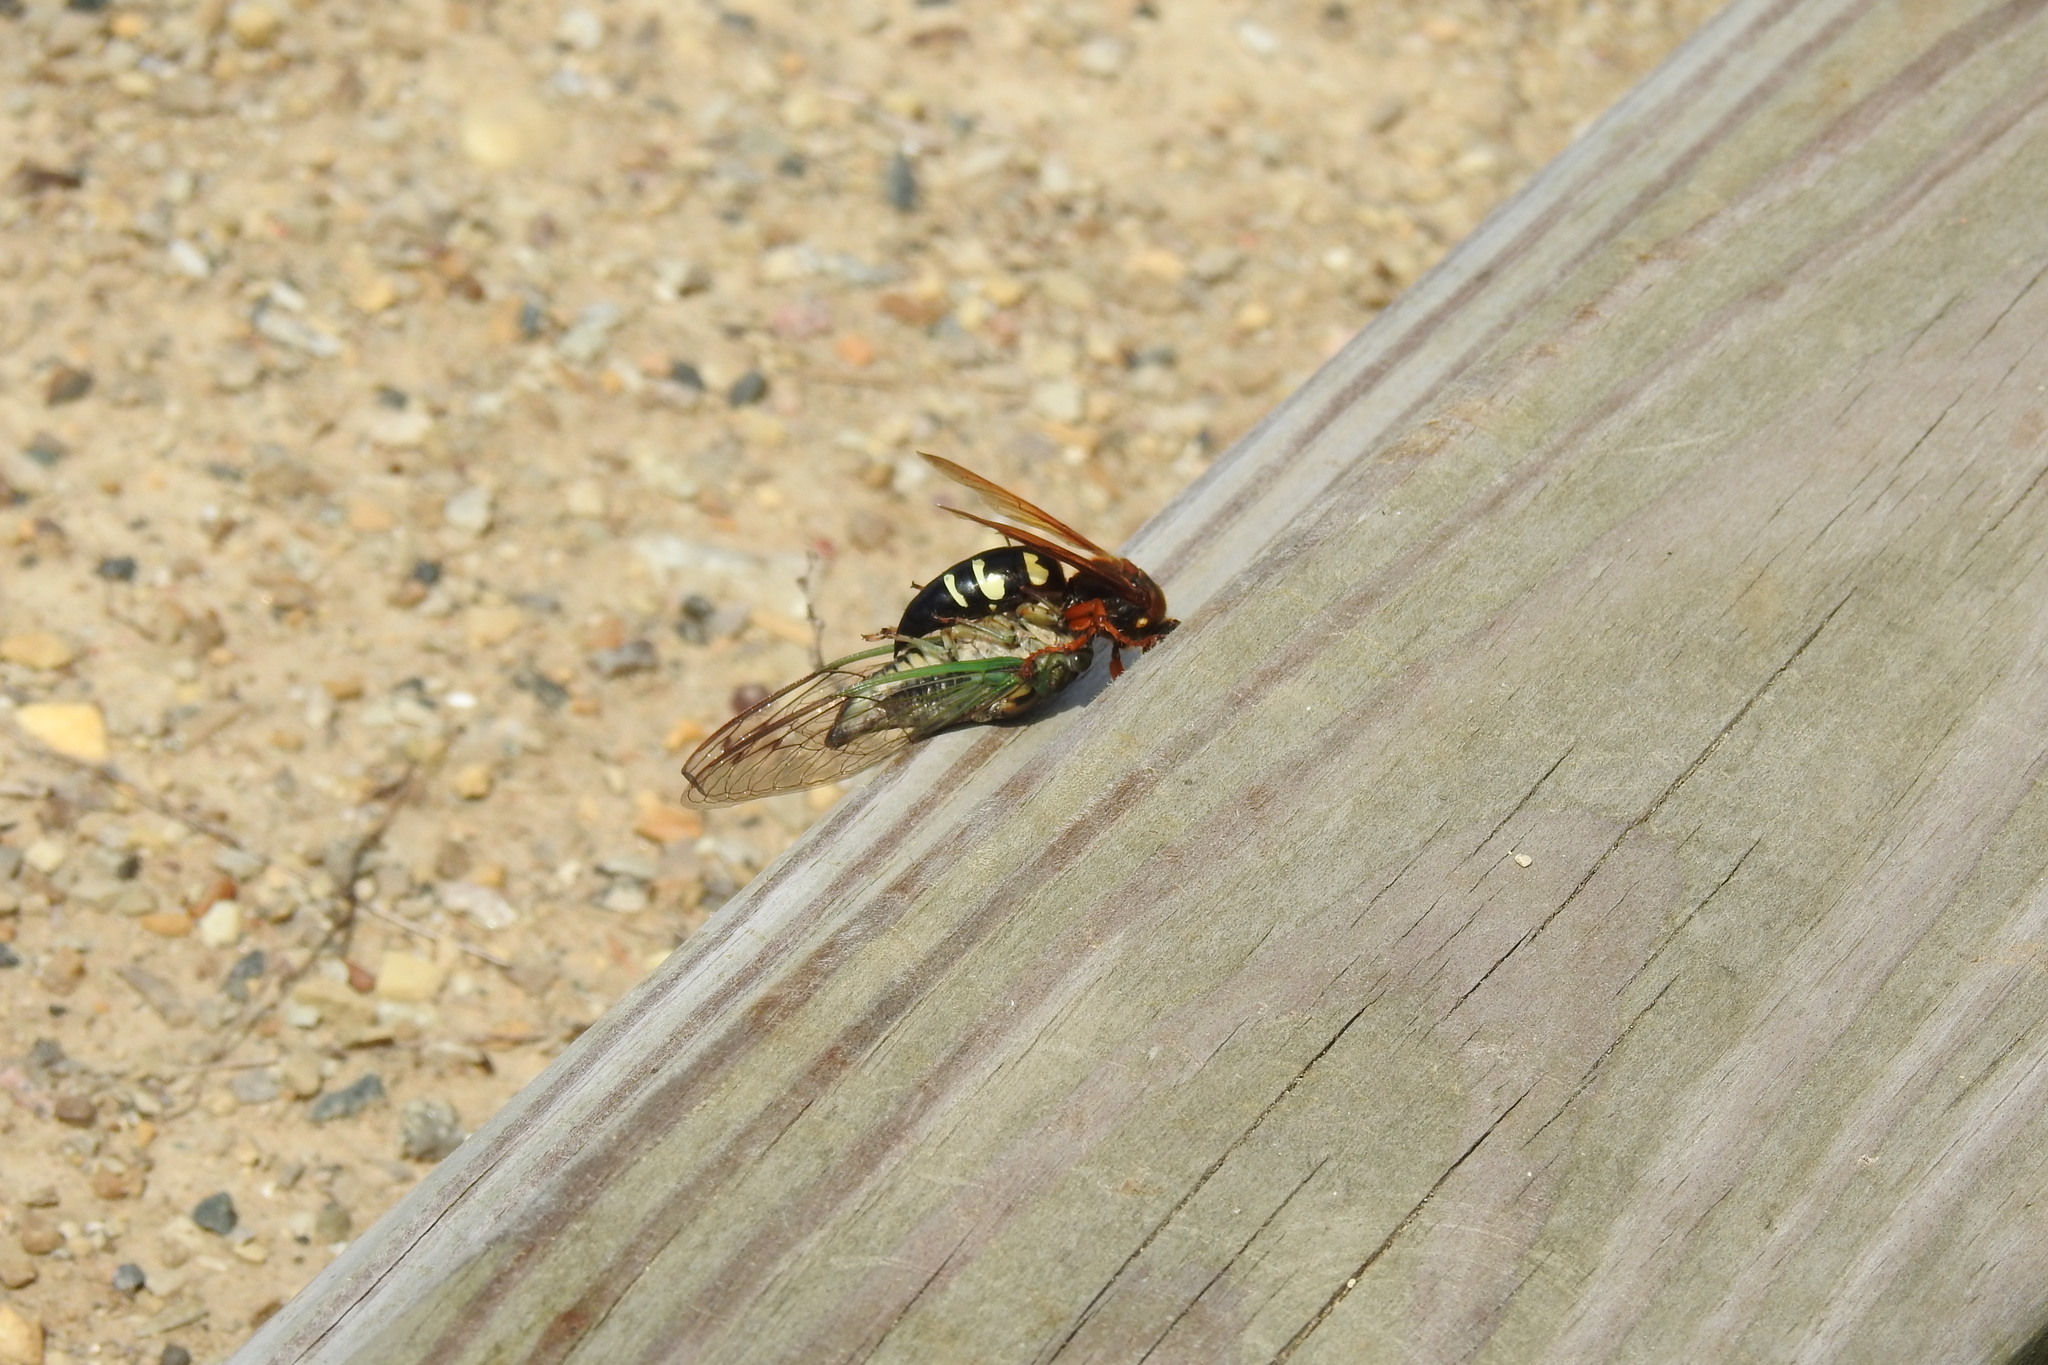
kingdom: Animalia
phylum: Arthropoda
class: Insecta
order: Hymenoptera
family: Crabronidae
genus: Sphecius
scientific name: Sphecius speciosus
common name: Cicada killer
